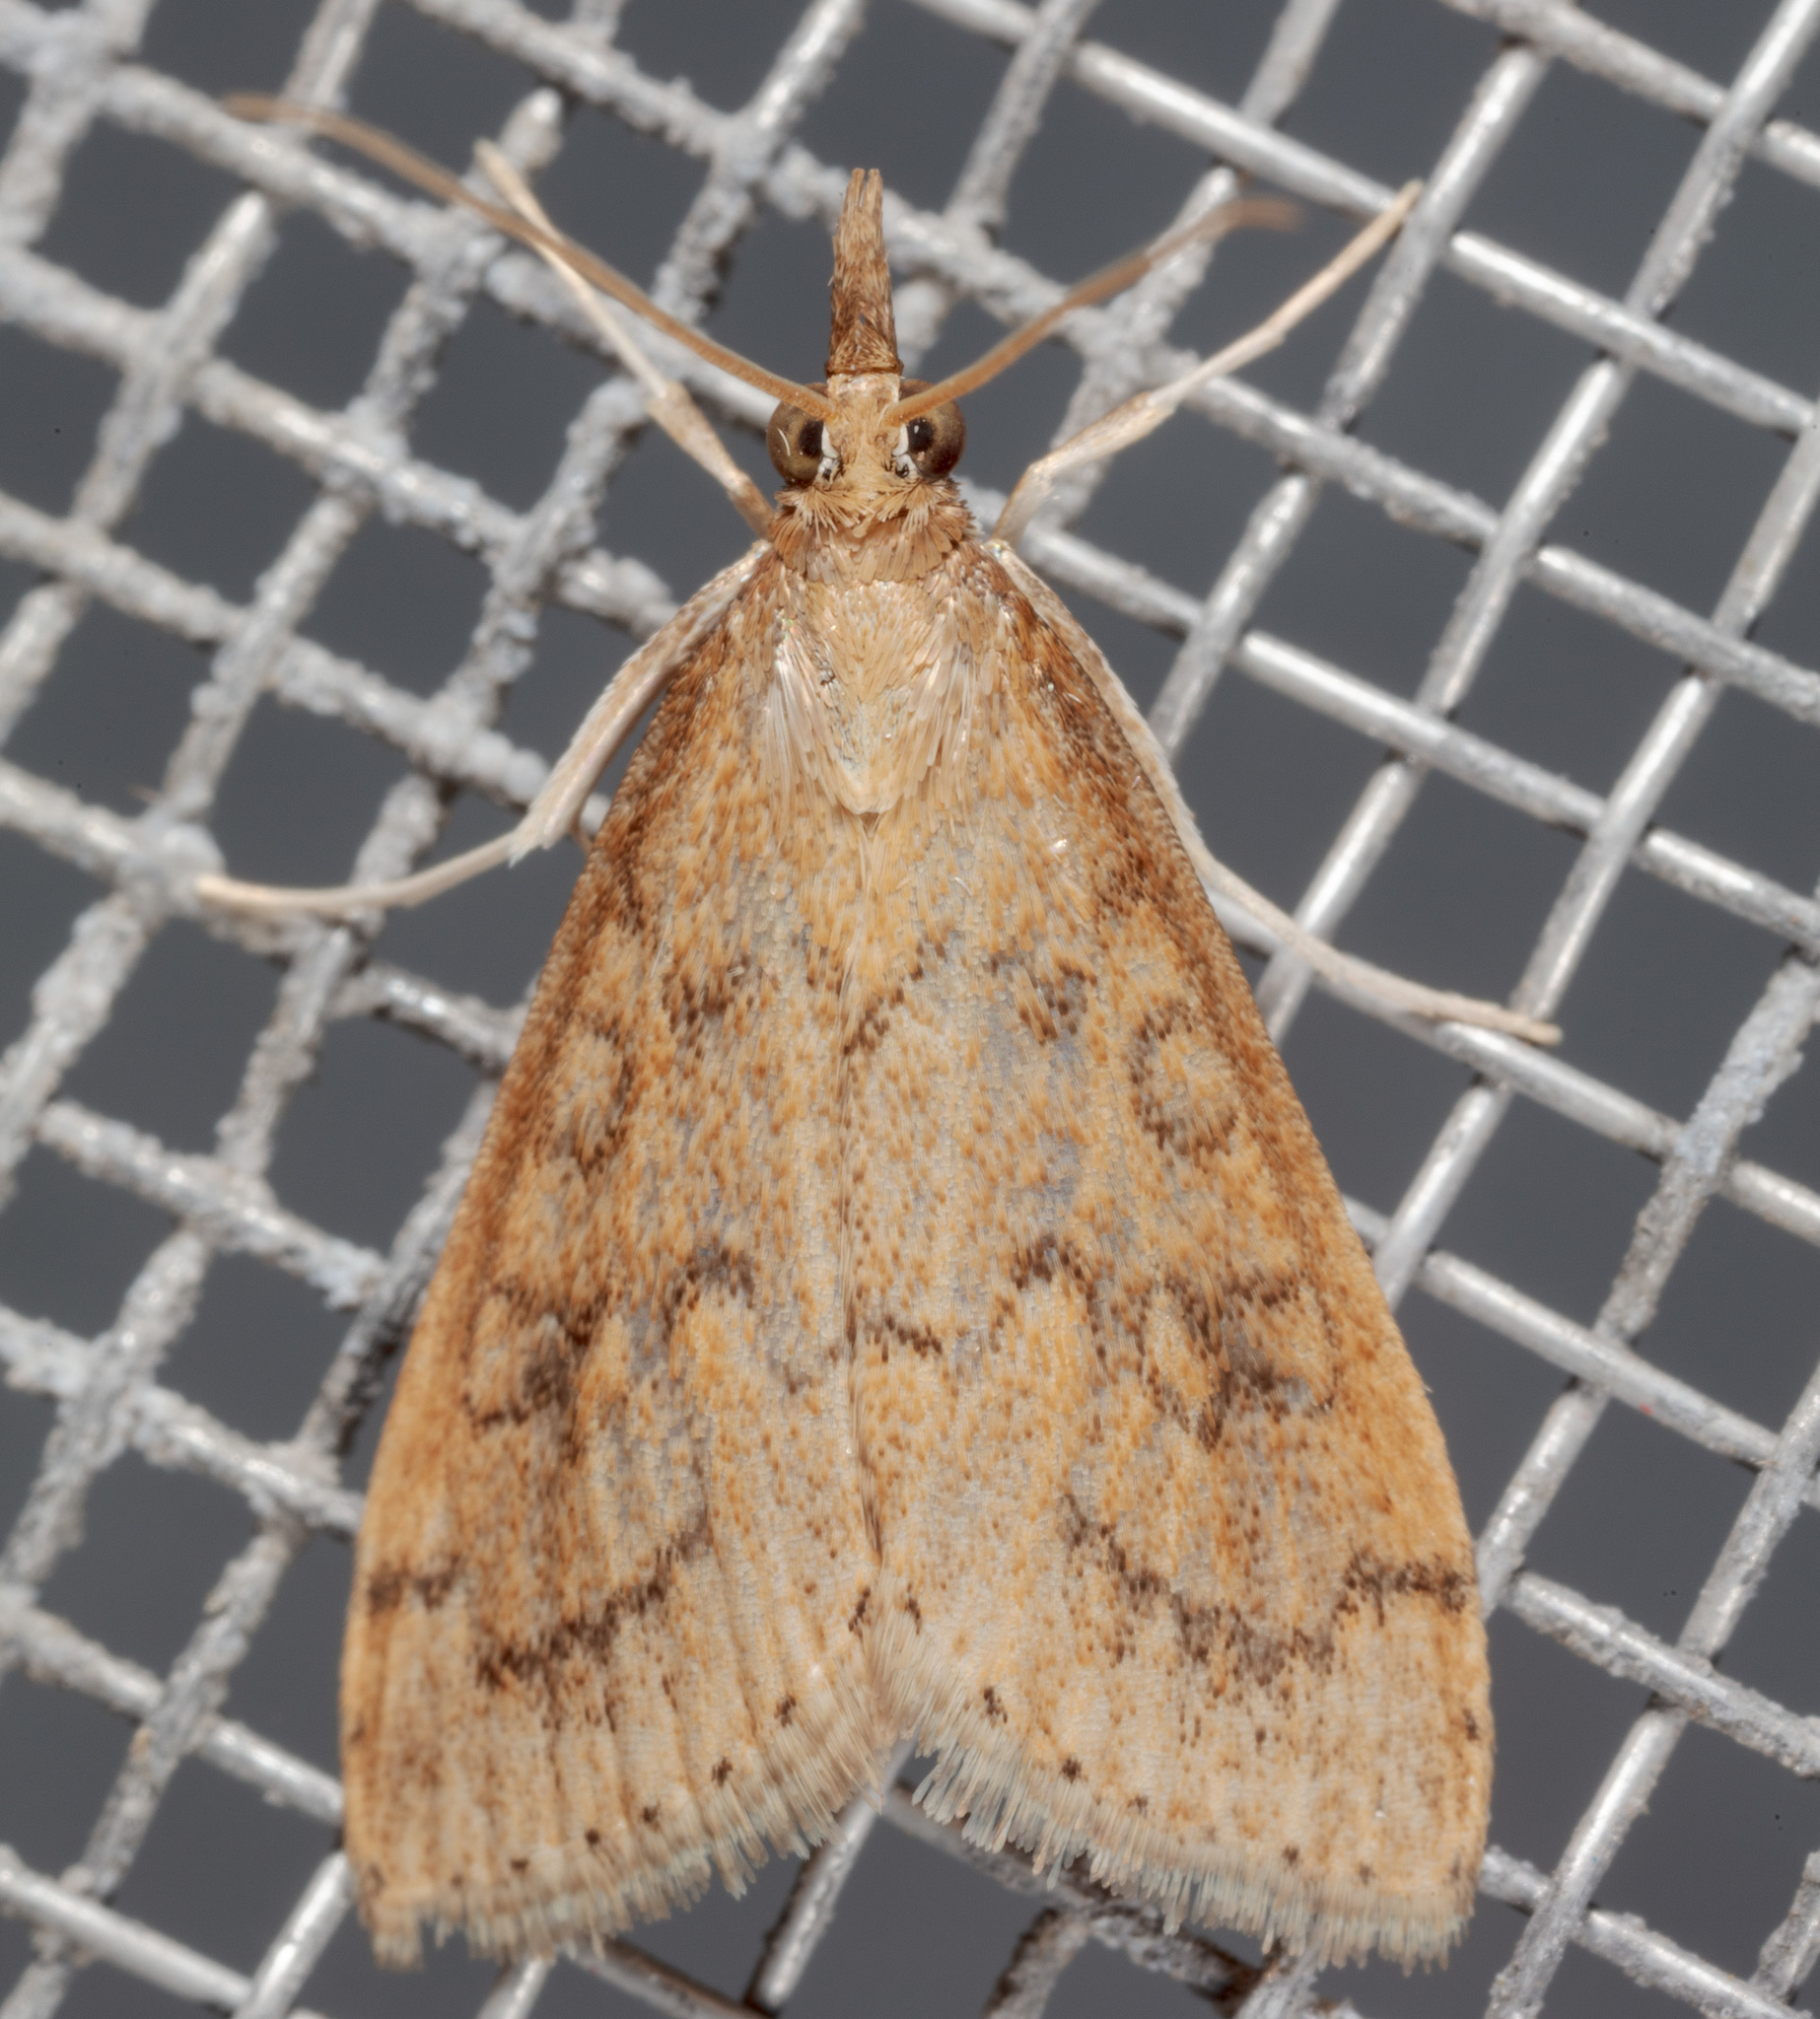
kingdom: Animalia
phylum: Arthropoda
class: Insecta
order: Lepidoptera
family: Crambidae
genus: Udea
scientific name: Udea rubigalis
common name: Celery leaftier moth
